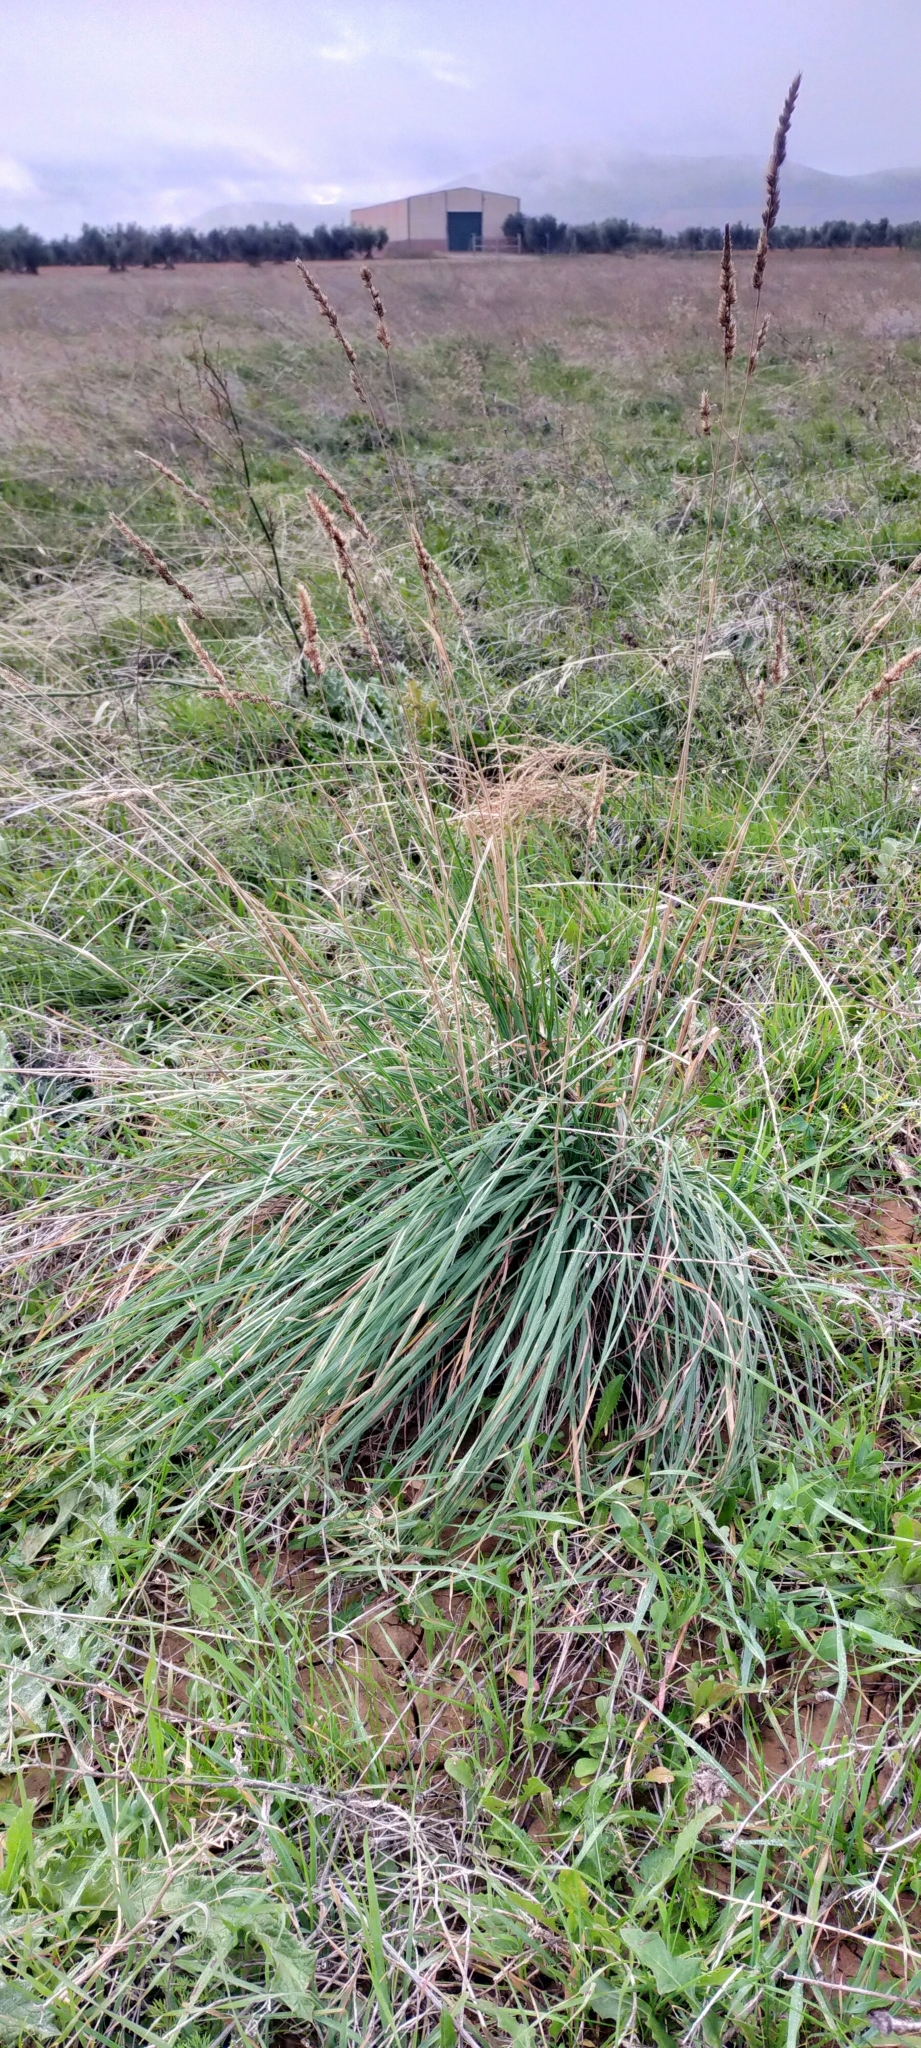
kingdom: Plantae
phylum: Tracheophyta
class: Liliopsida
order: Poales
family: Poaceae
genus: Dactylis
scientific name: Dactylis glomerata
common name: Orchardgrass
